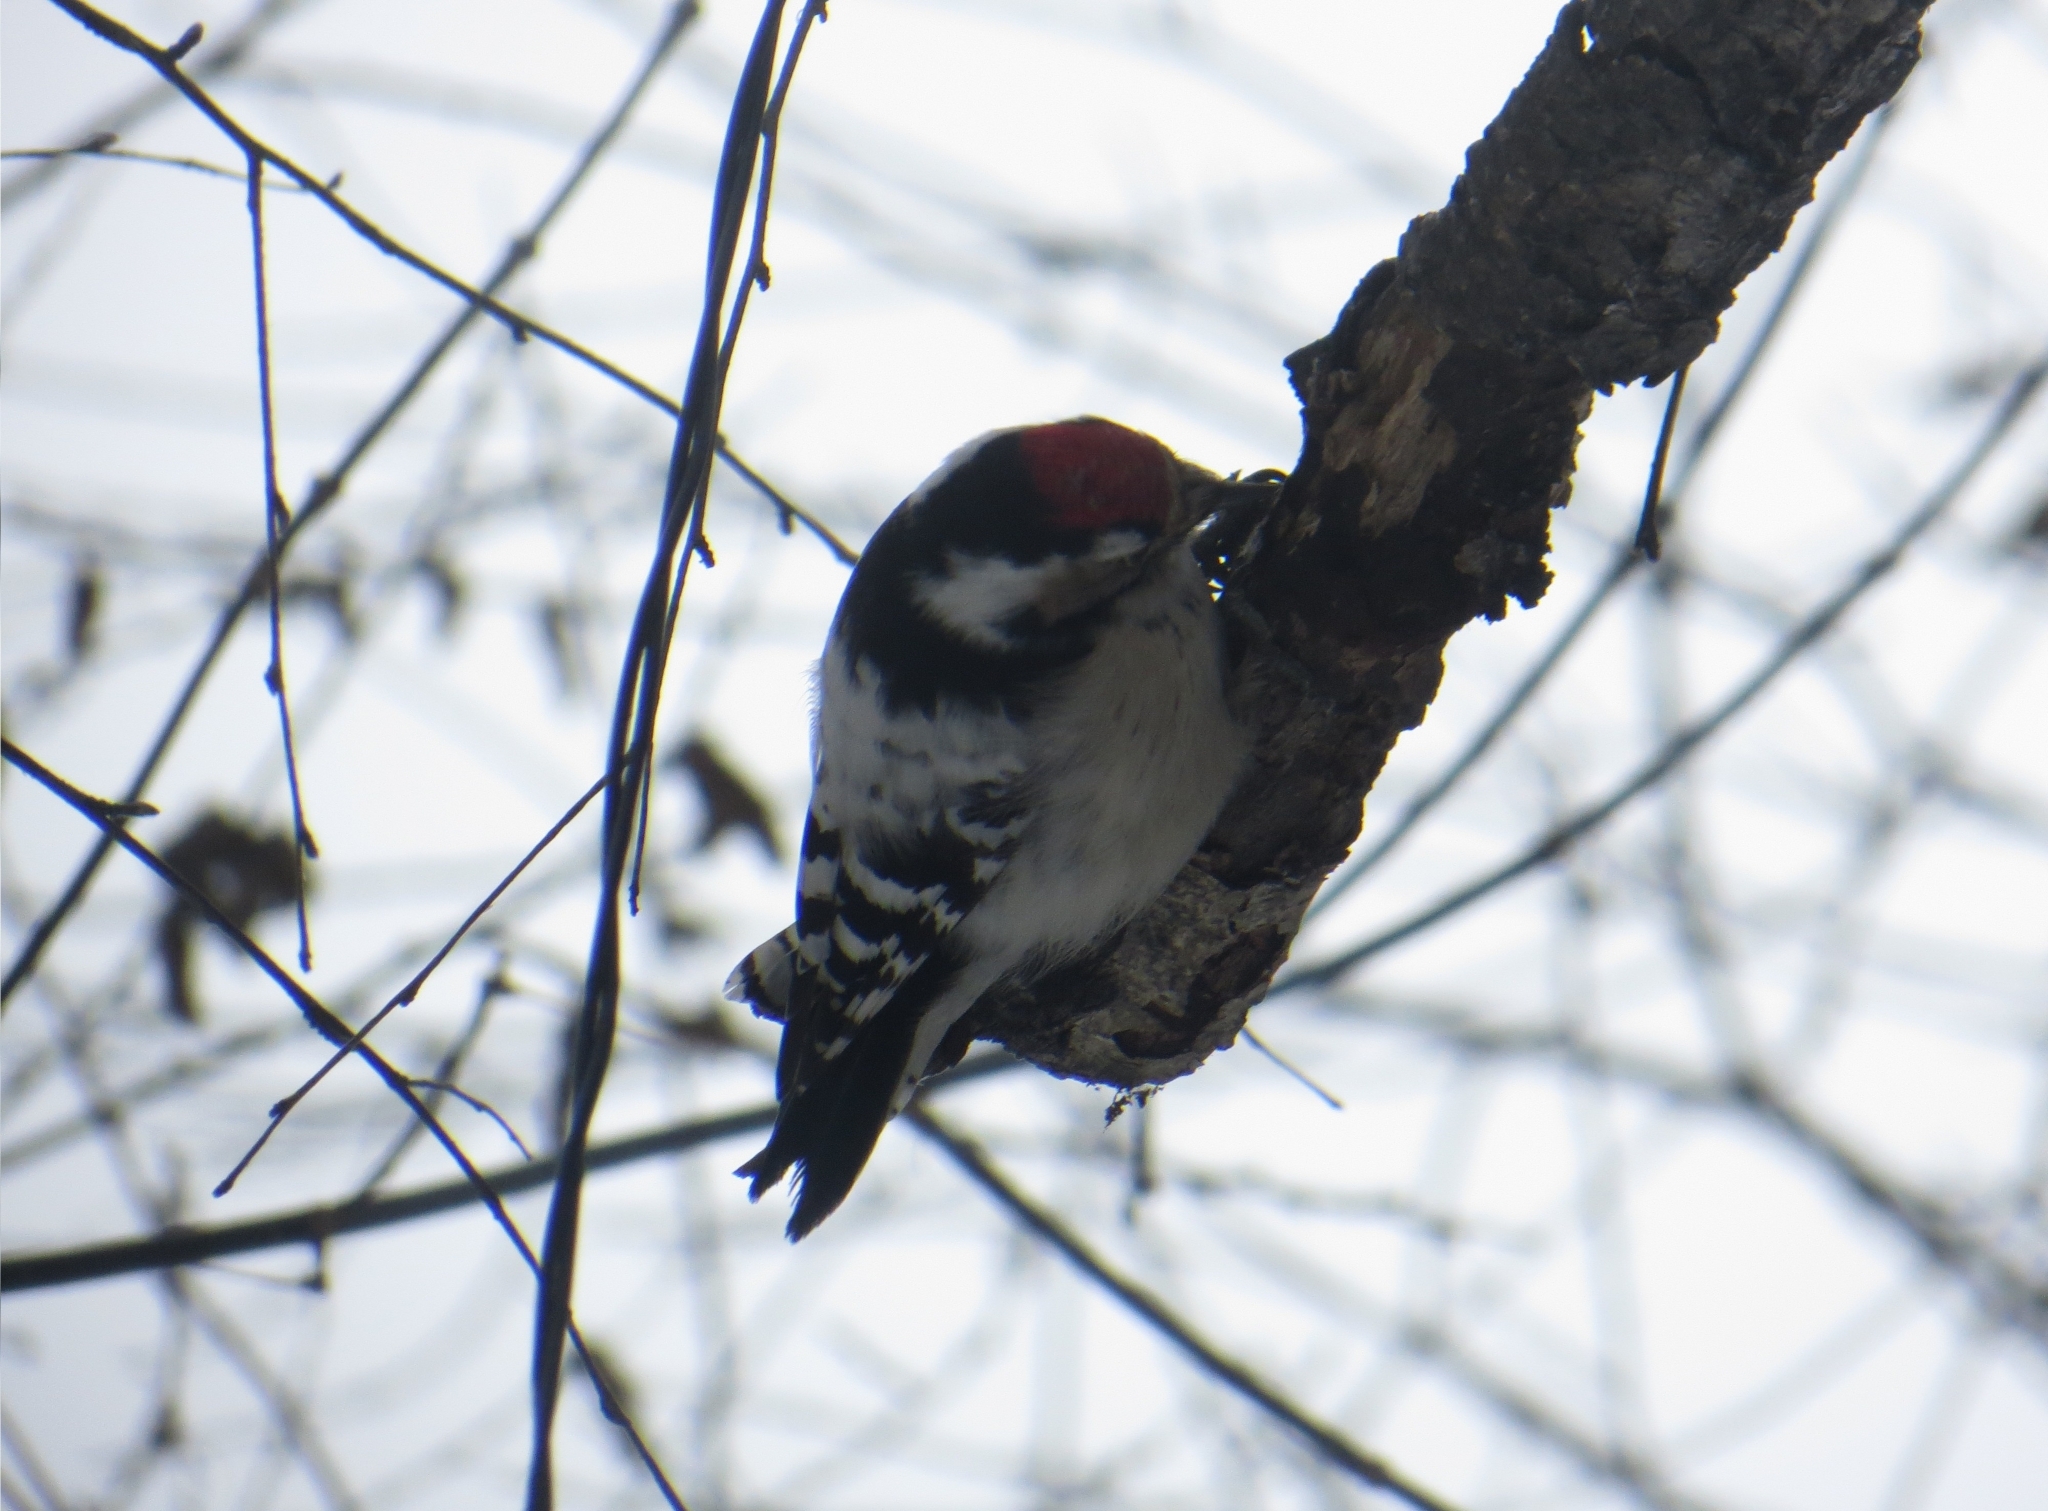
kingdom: Animalia
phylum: Chordata
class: Aves
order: Piciformes
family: Picidae
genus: Dryobates
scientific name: Dryobates minor
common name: Lesser spotted woodpecker
